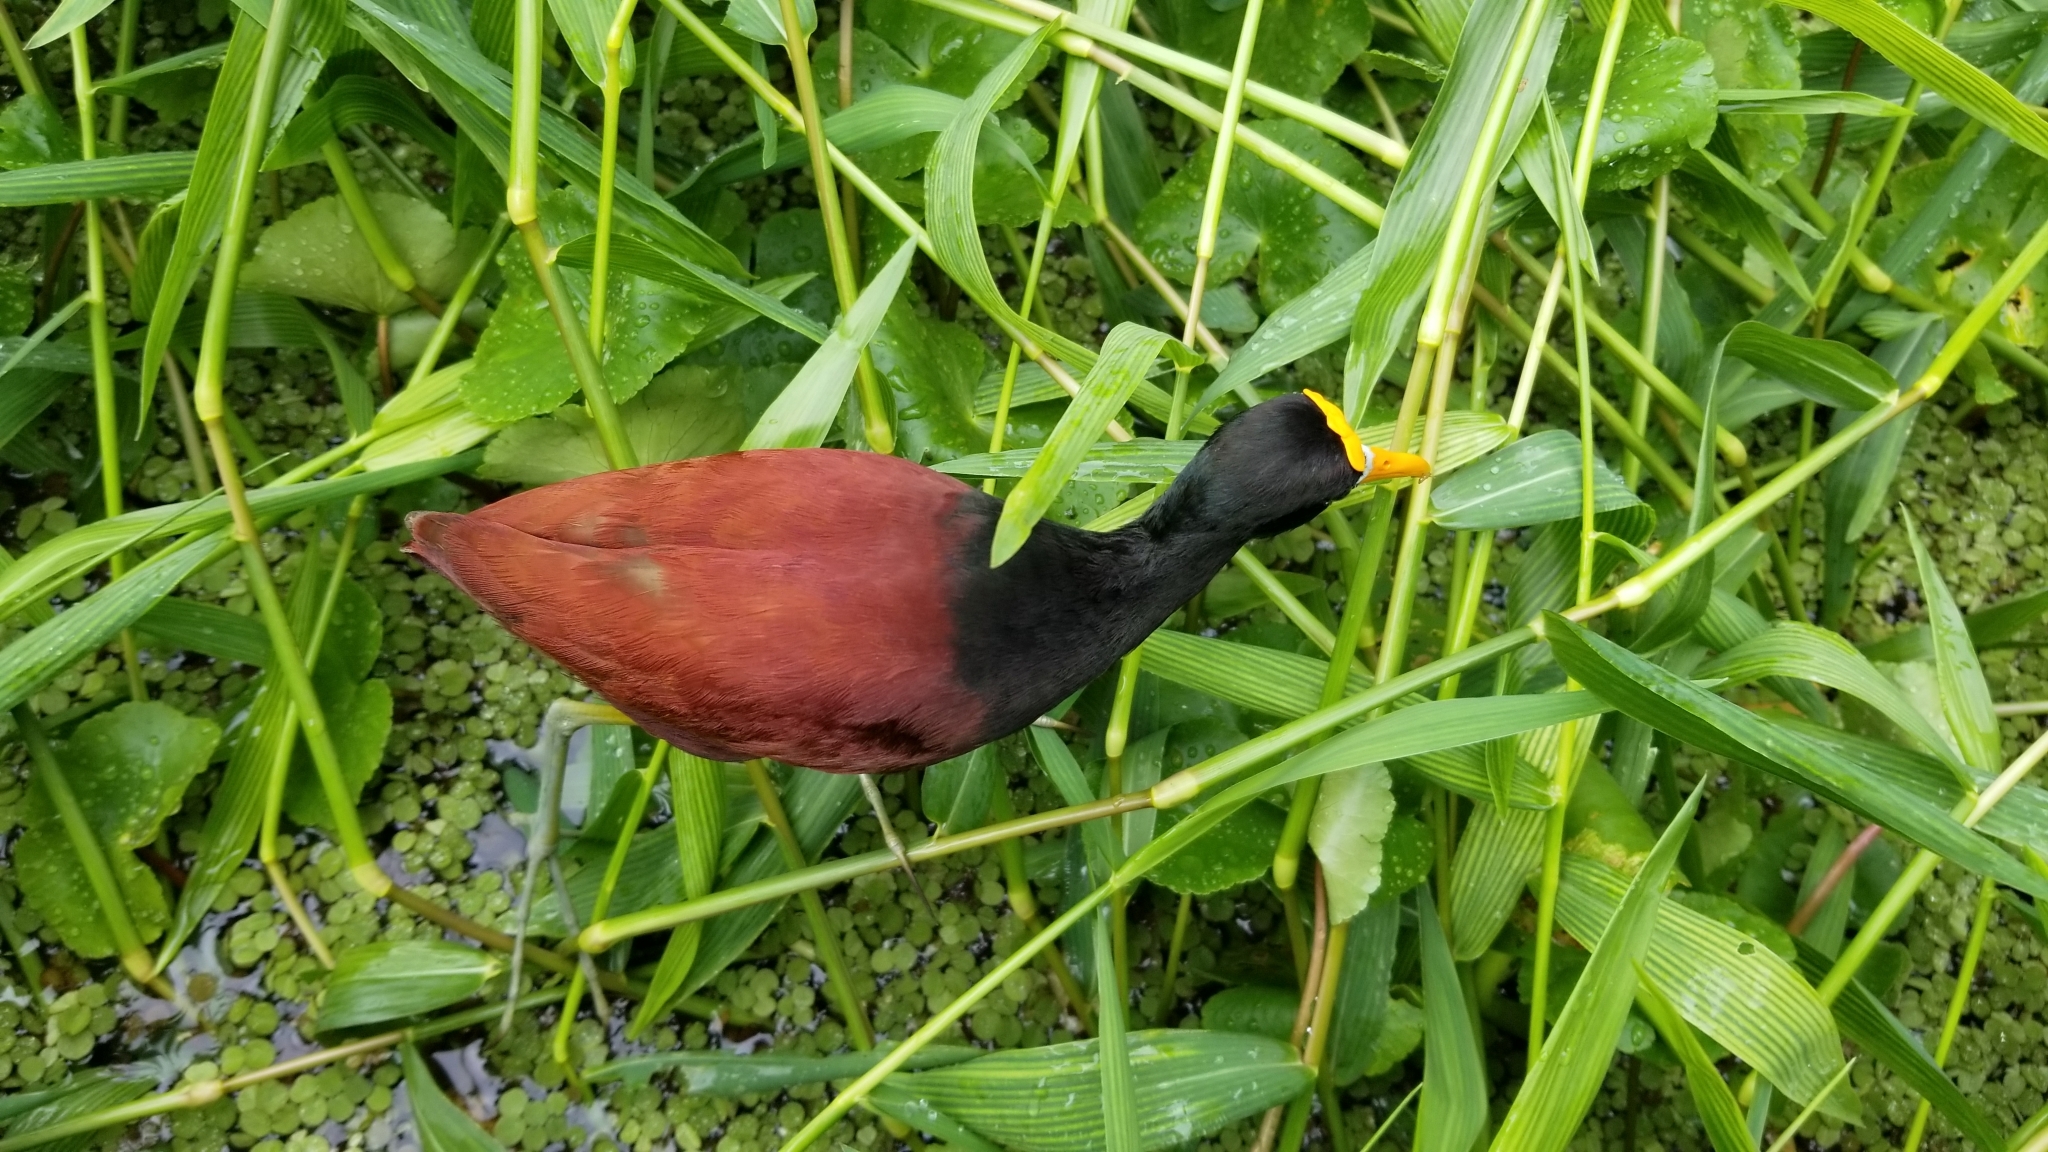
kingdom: Animalia
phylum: Chordata
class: Aves
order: Charadriiformes
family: Jacanidae
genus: Jacana
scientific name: Jacana spinosa
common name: Northern jacana
